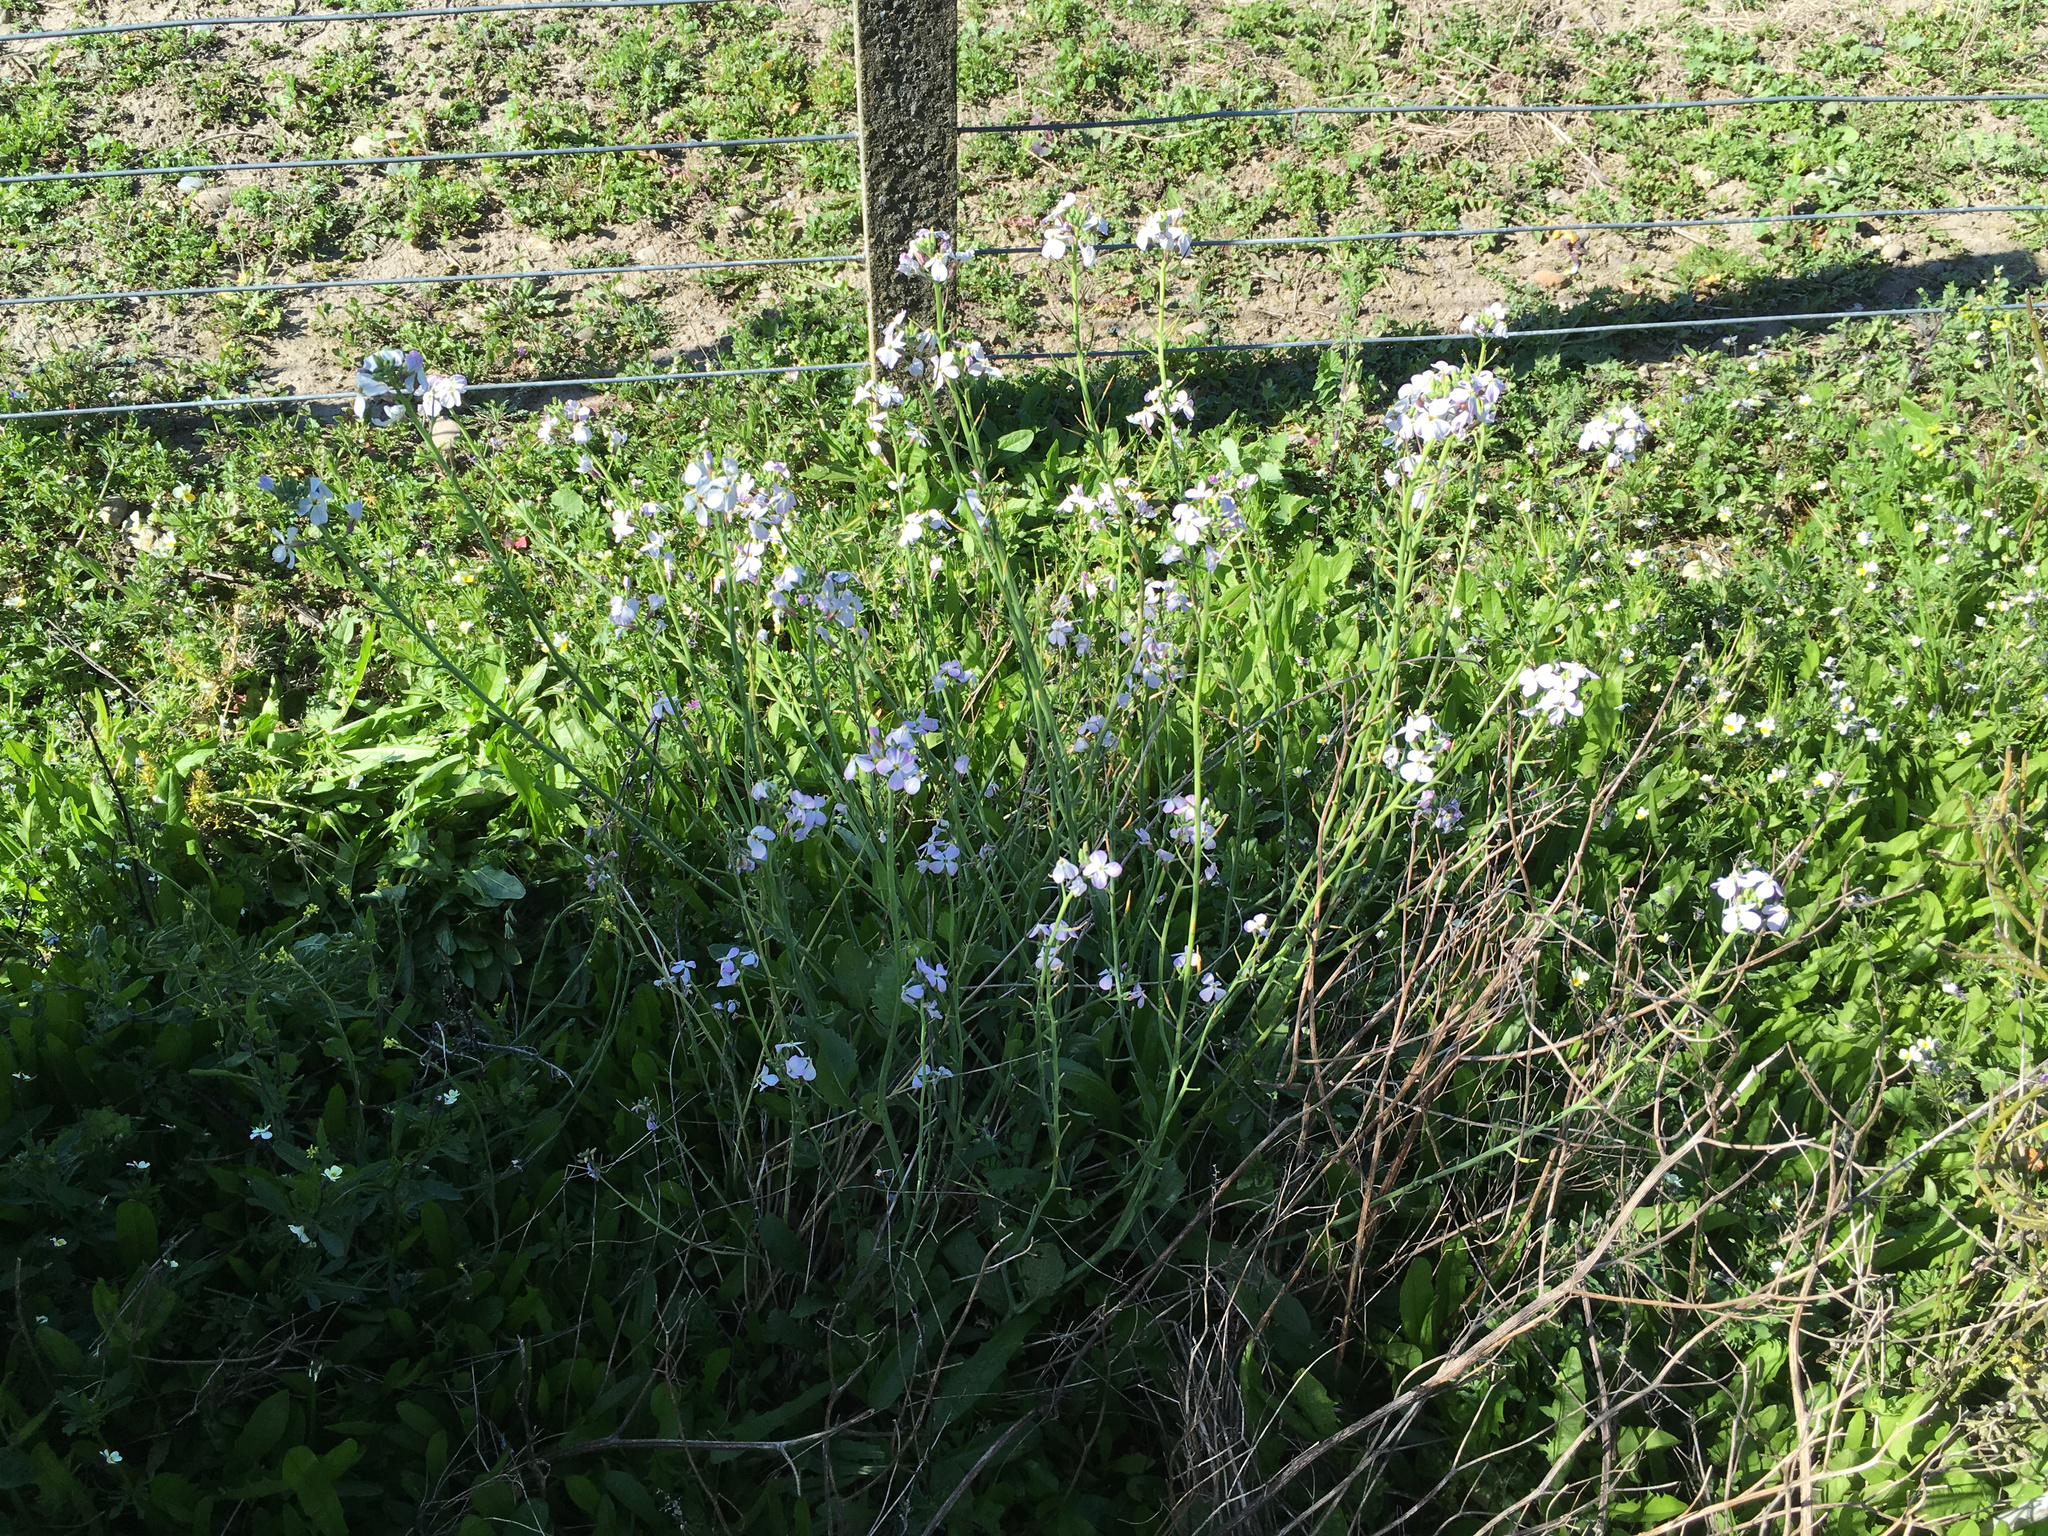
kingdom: Plantae
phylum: Tracheophyta
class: Magnoliopsida
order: Brassicales
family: Brassicaceae
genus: Raphanus
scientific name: Raphanus raphanistrum
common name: Wild radish
